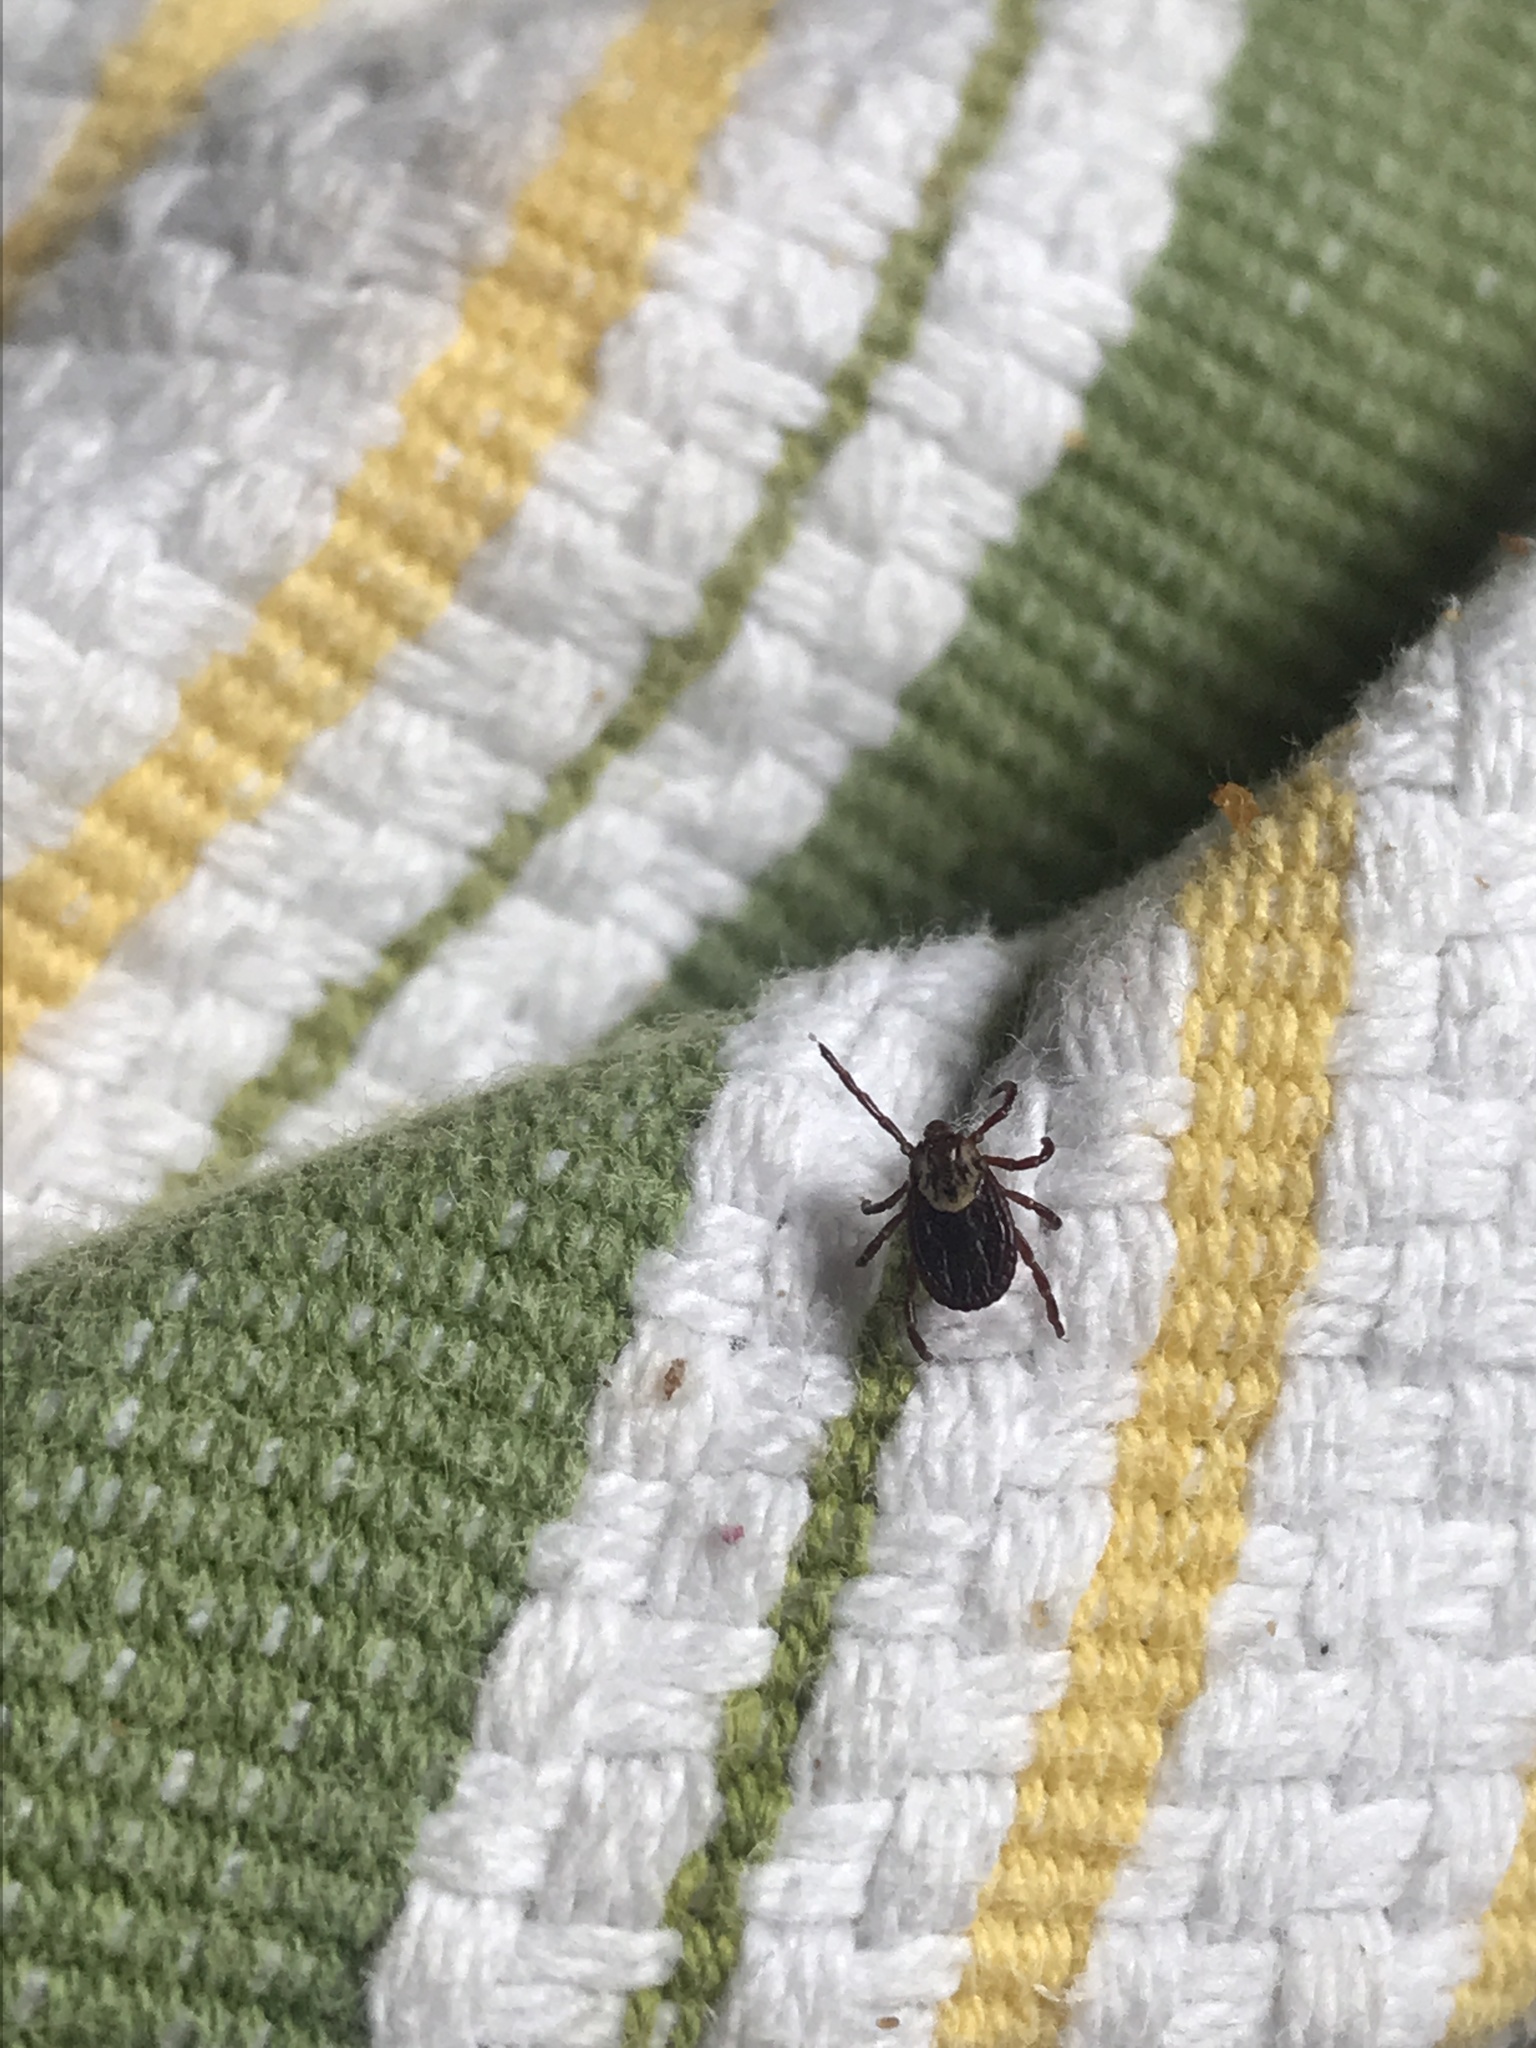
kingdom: Animalia
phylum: Arthropoda
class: Arachnida
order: Ixodida
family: Ixodidae
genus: Dermacentor
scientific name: Dermacentor variabilis
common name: American dog tick
